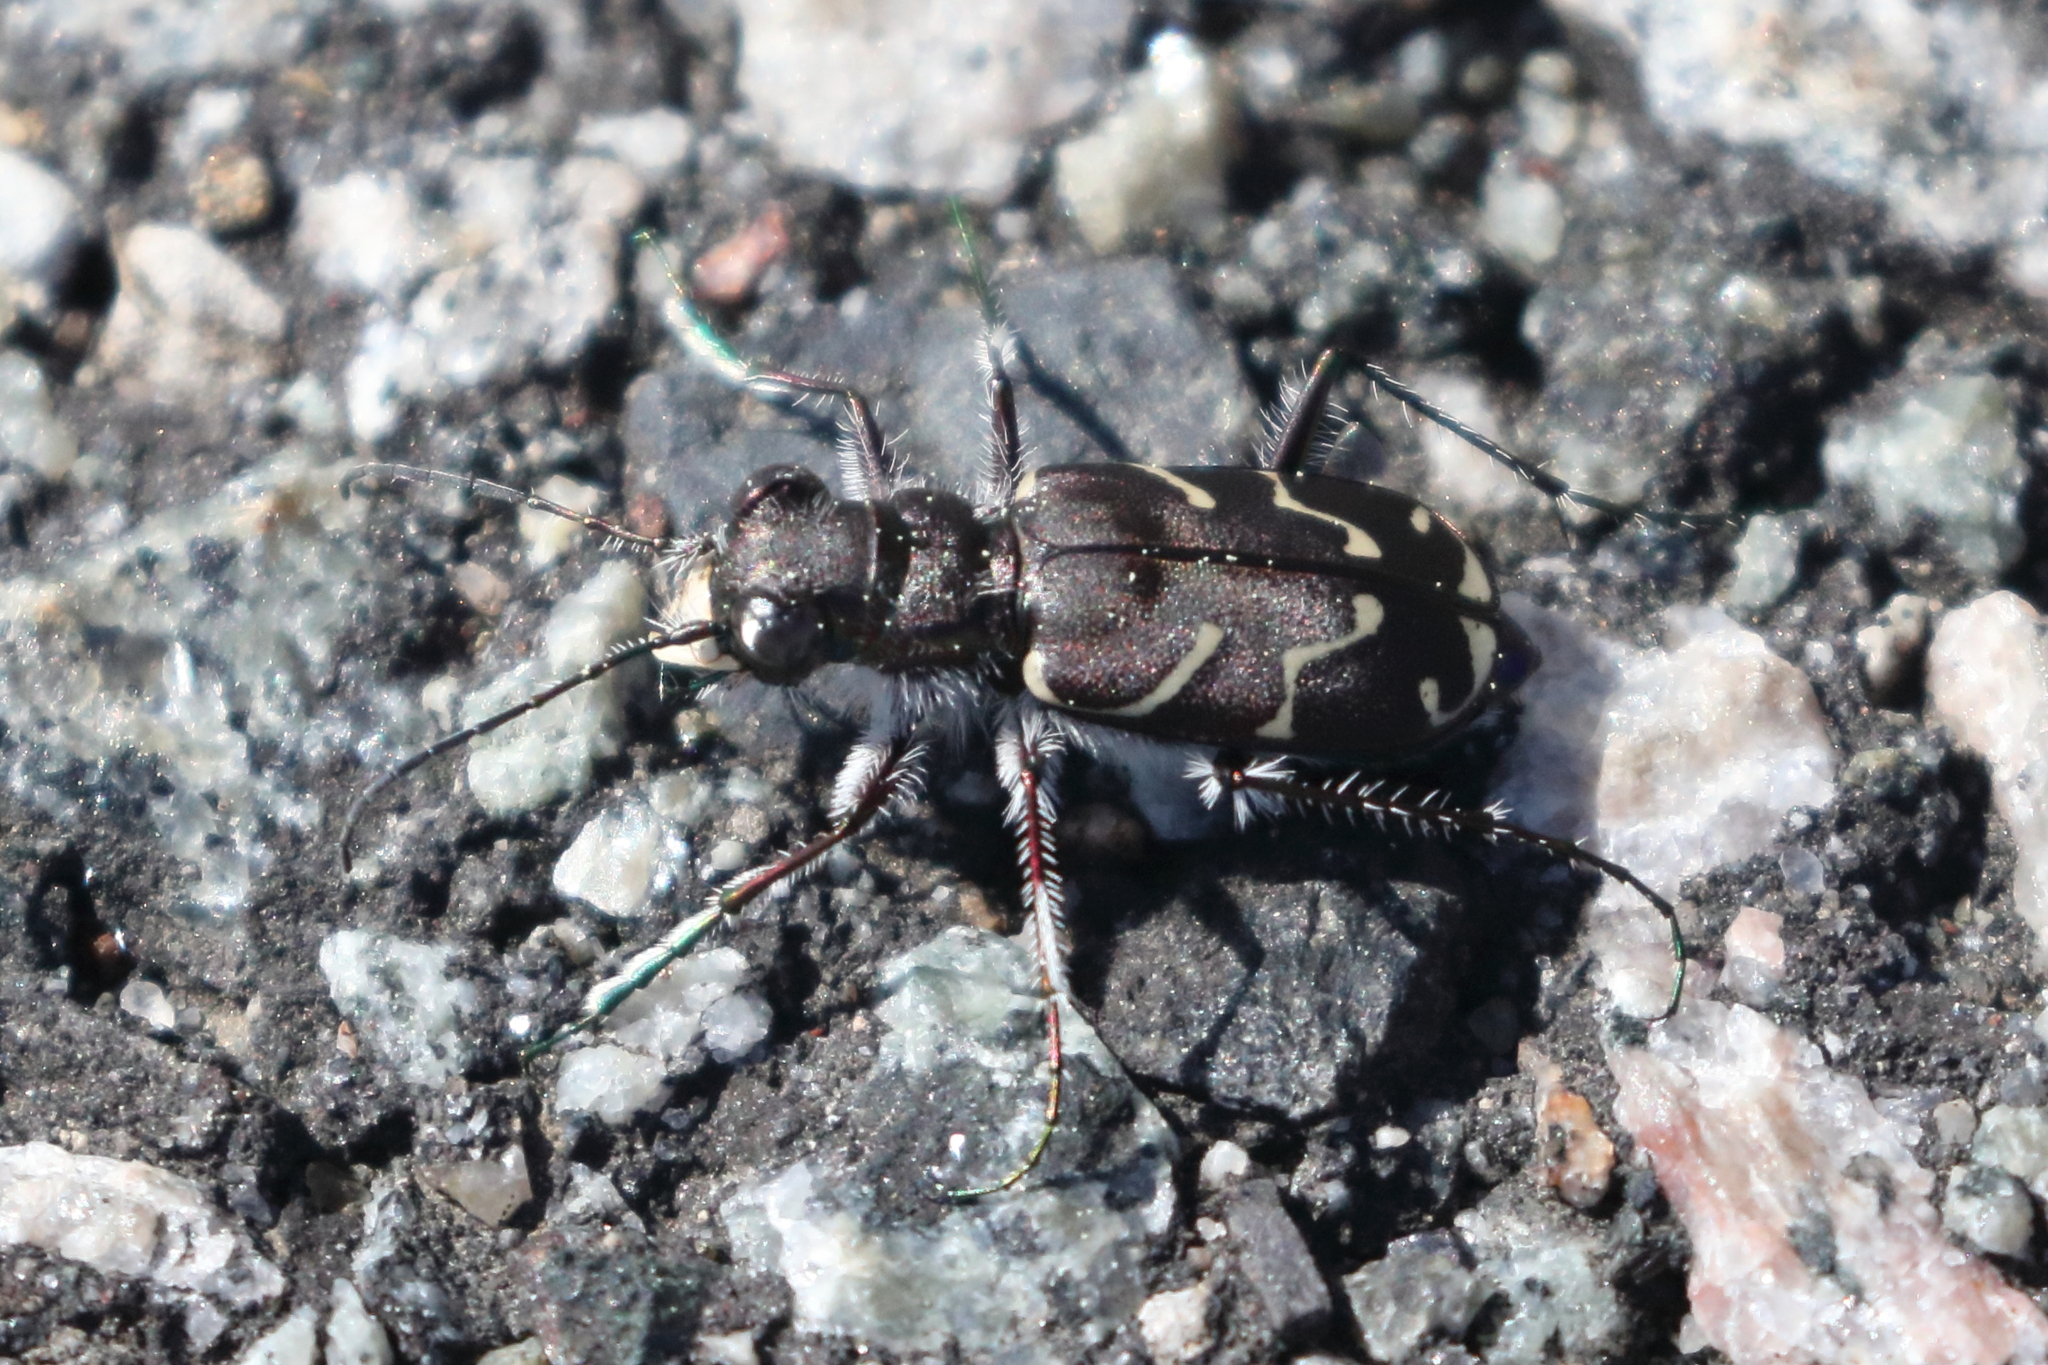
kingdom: Animalia
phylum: Arthropoda
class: Insecta
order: Coleoptera
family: Carabidae
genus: Cicindela
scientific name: Cicindela tranquebarica
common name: Oblique-lined tiger beetle
